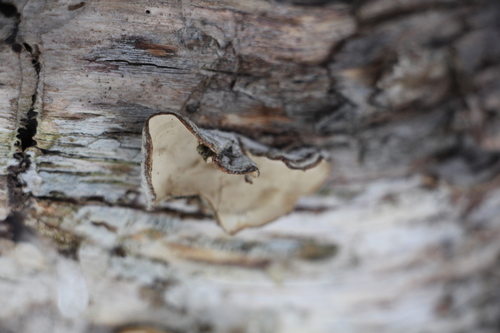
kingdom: Fungi
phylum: Basidiomycota
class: Agaricomycetes
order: Russulales
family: Stereaceae
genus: Stereum
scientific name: Stereum subtomentosum
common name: Yellowing curtain crust
